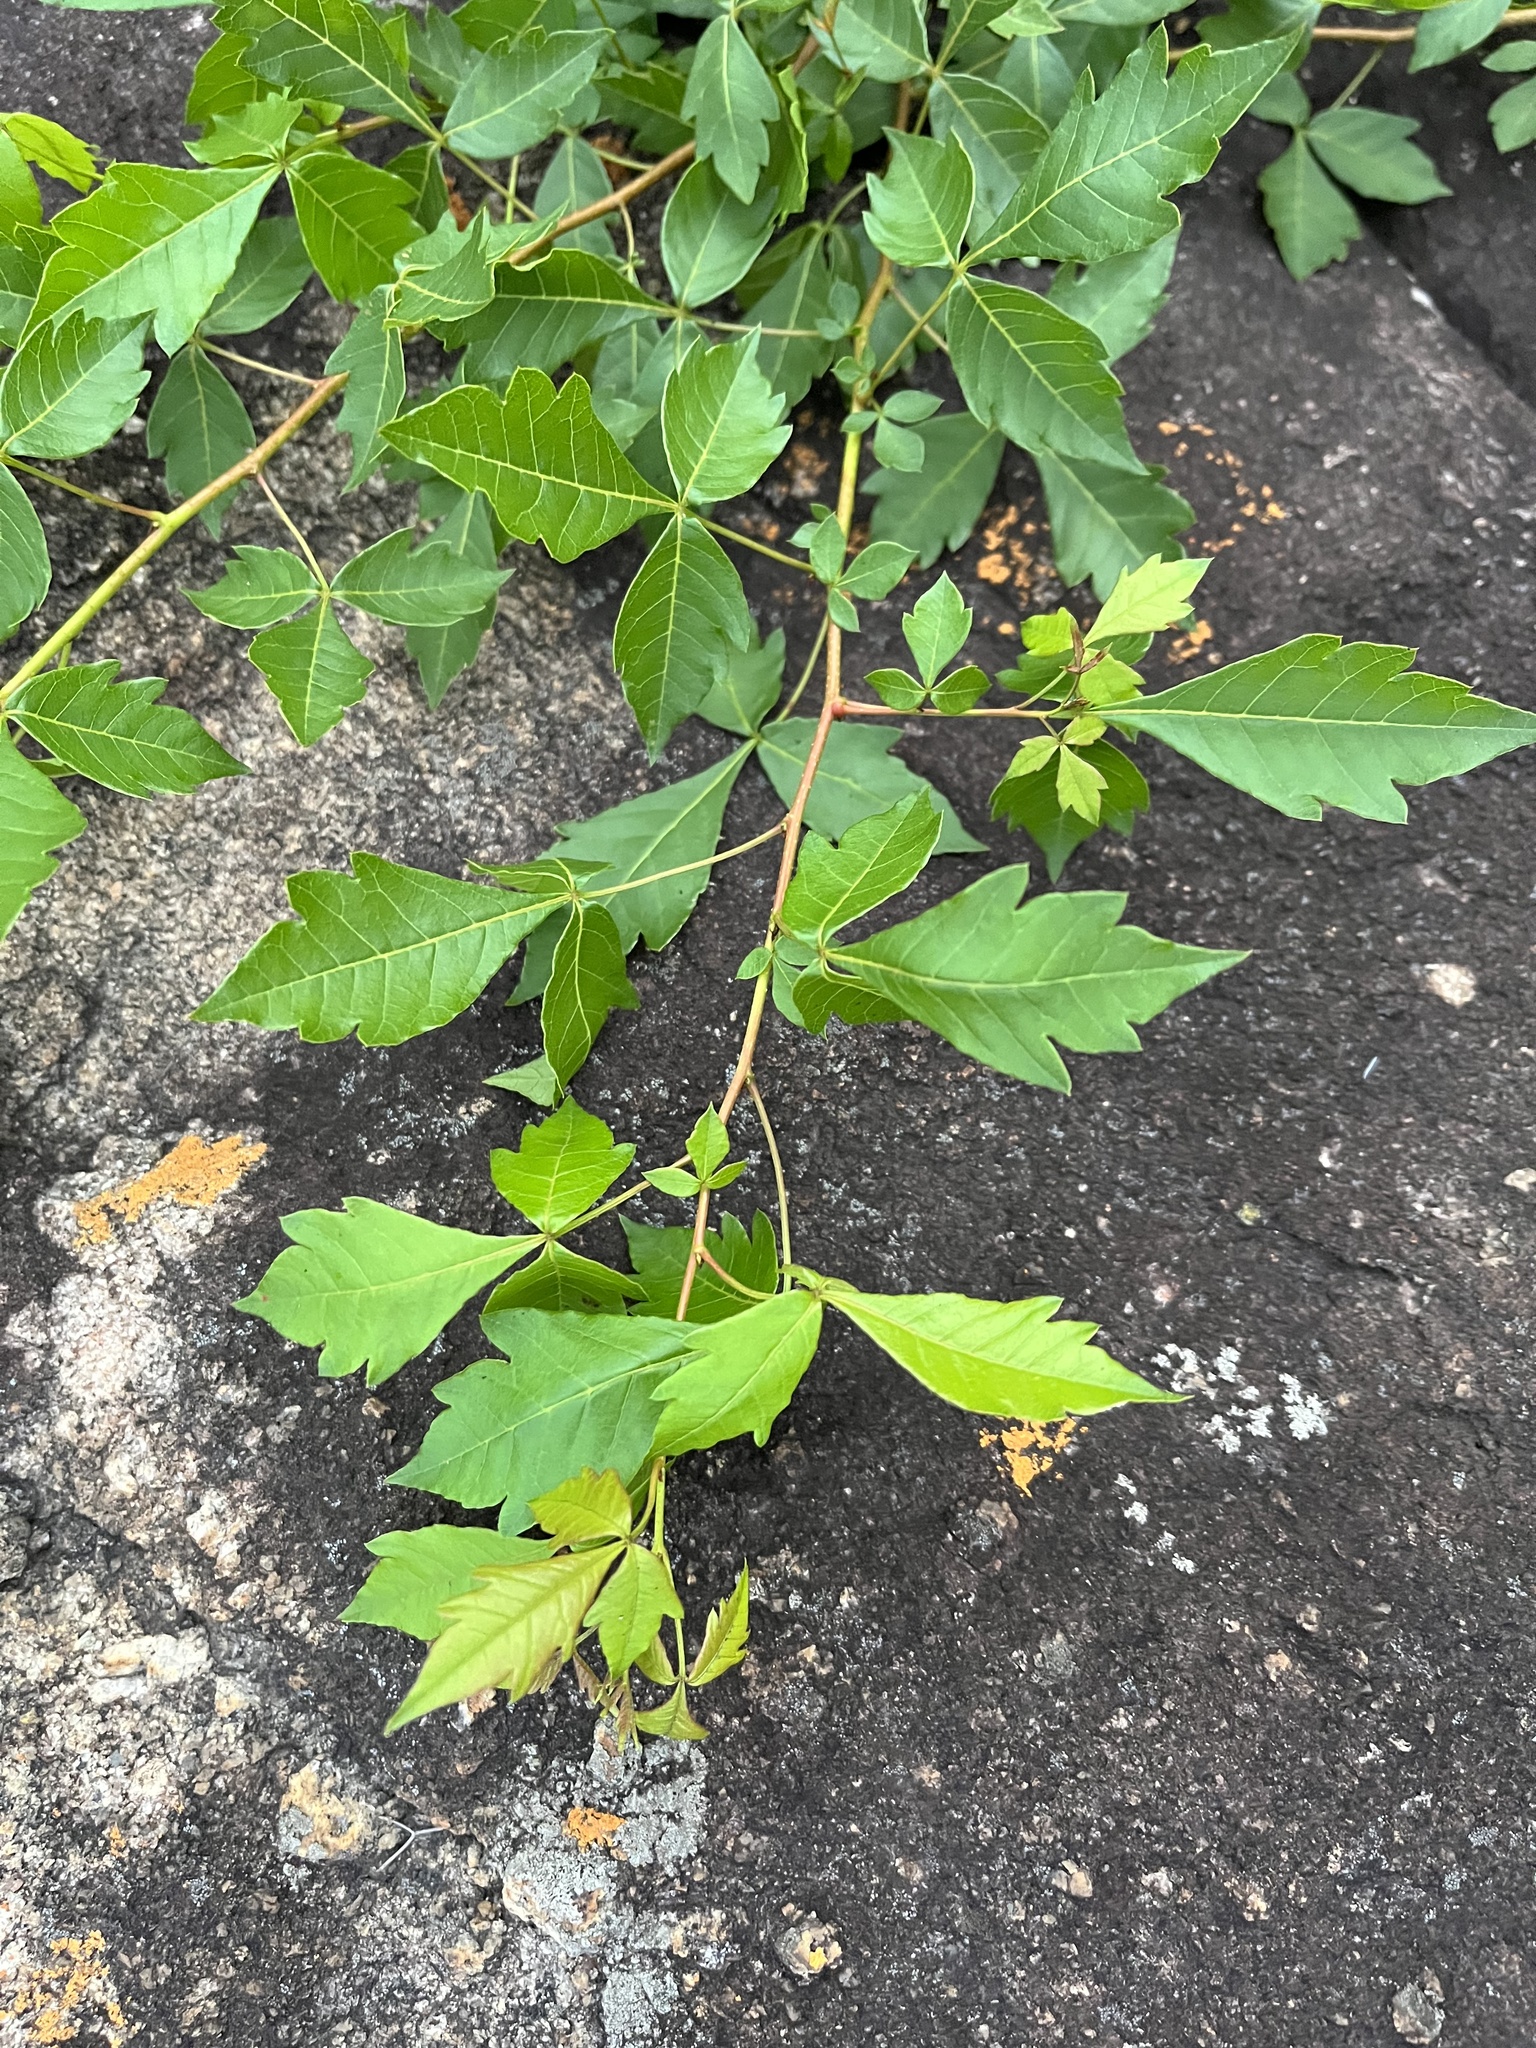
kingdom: Plantae
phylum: Tracheophyta
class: Magnoliopsida
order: Sapindales
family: Anacardiaceae
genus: Searsia
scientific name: Searsia dentata
